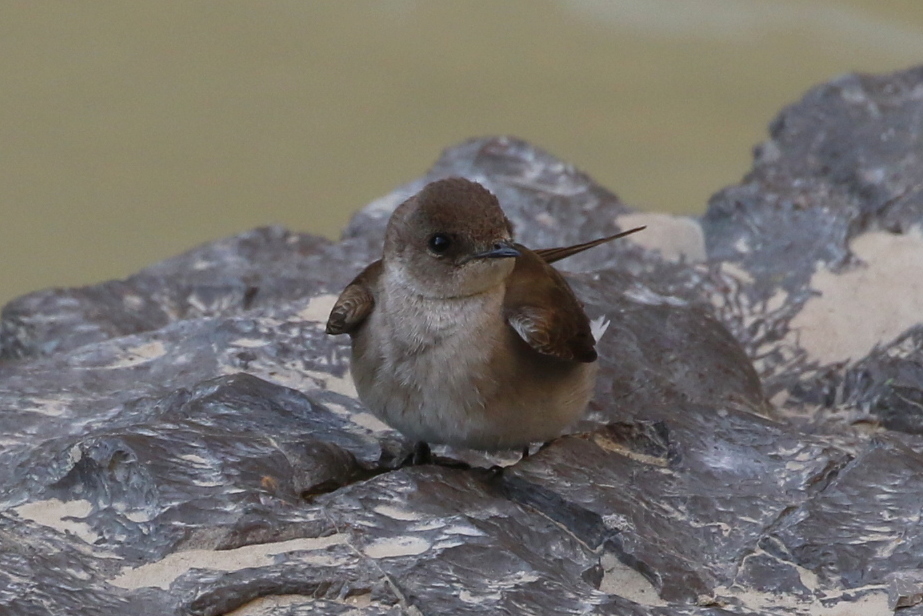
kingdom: Animalia
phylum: Chordata
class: Aves
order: Passeriformes
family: Hirundinidae
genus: Stelgidopteryx
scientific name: Stelgidopteryx serripennis
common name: Northern rough-winged swallow
